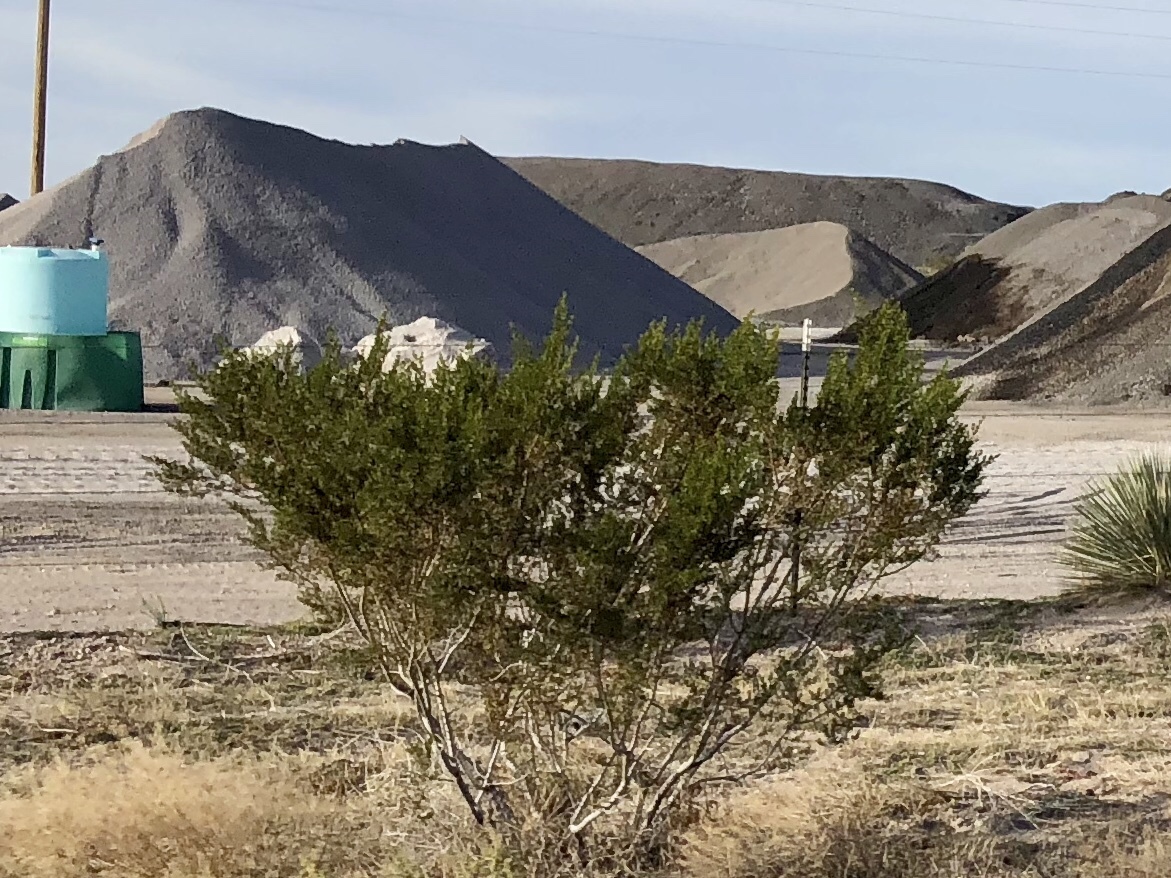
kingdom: Plantae
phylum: Tracheophyta
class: Magnoliopsida
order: Zygophyllales
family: Zygophyllaceae
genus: Larrea
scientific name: Larrea tridentata
